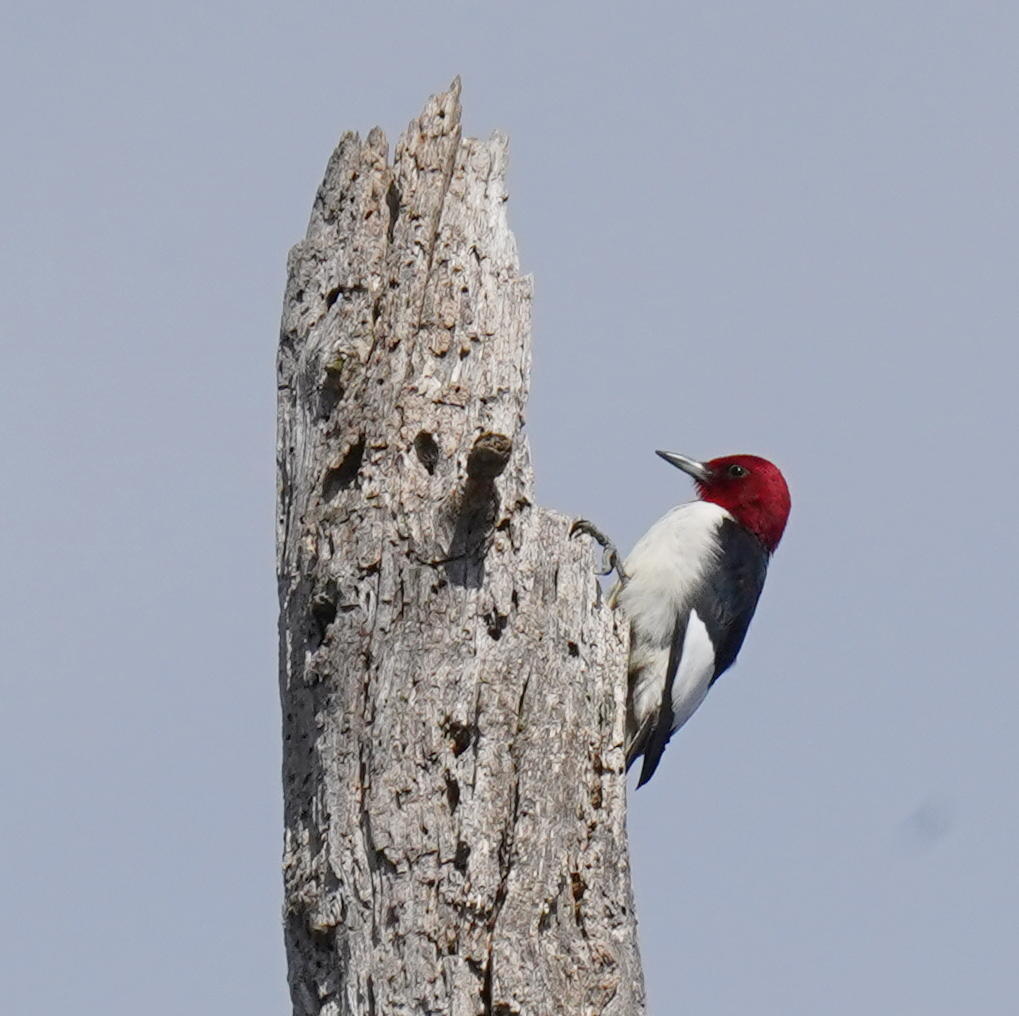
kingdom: Animalia
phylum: Chordata
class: Aves
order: Piciformes
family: Picidae
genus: Melanerpes
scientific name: Melanerpes erythrocephalus
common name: Red-headed woodpecker
